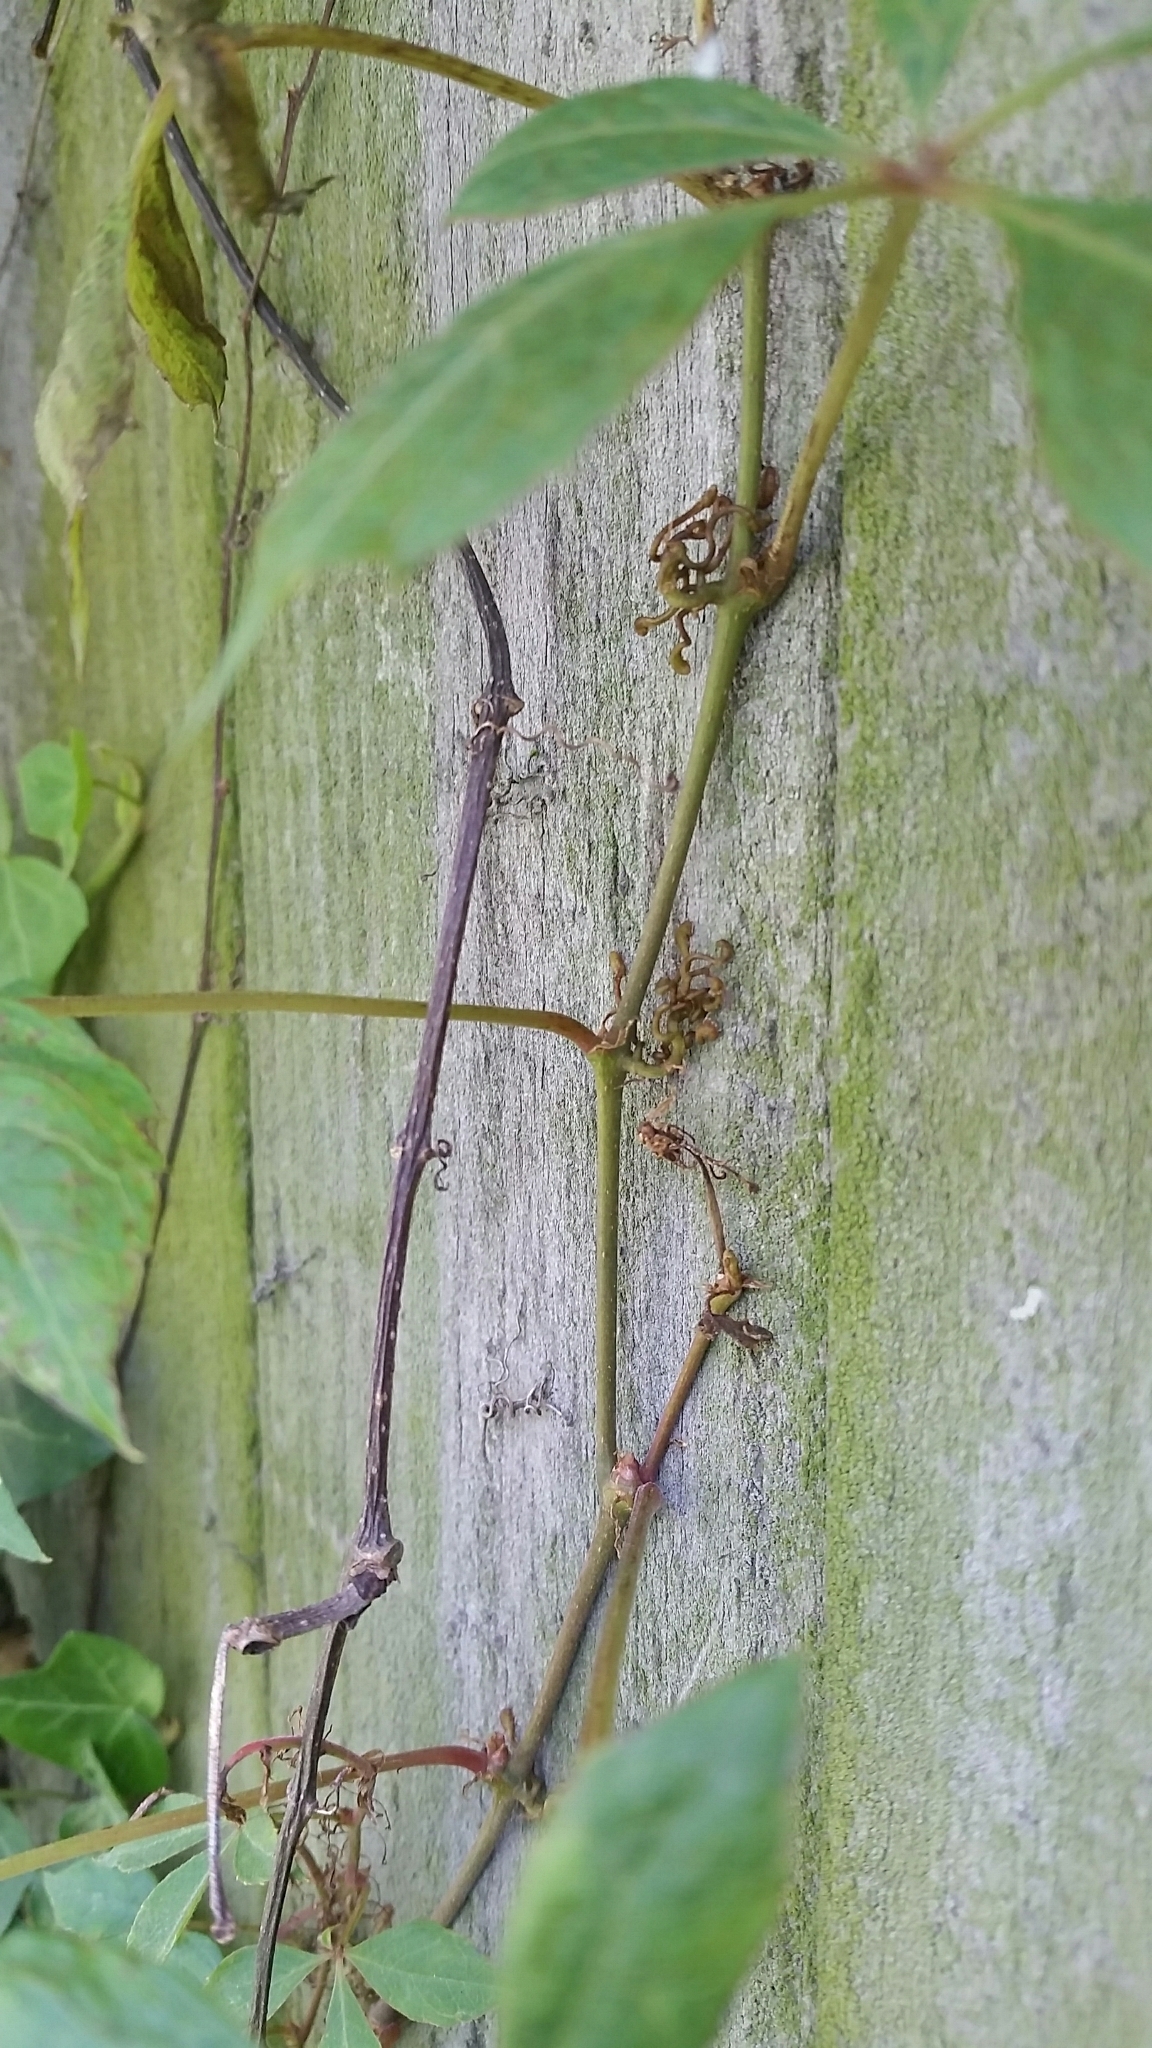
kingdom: Plantae
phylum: Tracheophyta
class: Magnoliopsida
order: Vitales
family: Vitaceae
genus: Parthenocissus
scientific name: Parthenocissus quinquefolia
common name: Virginia-creeper
